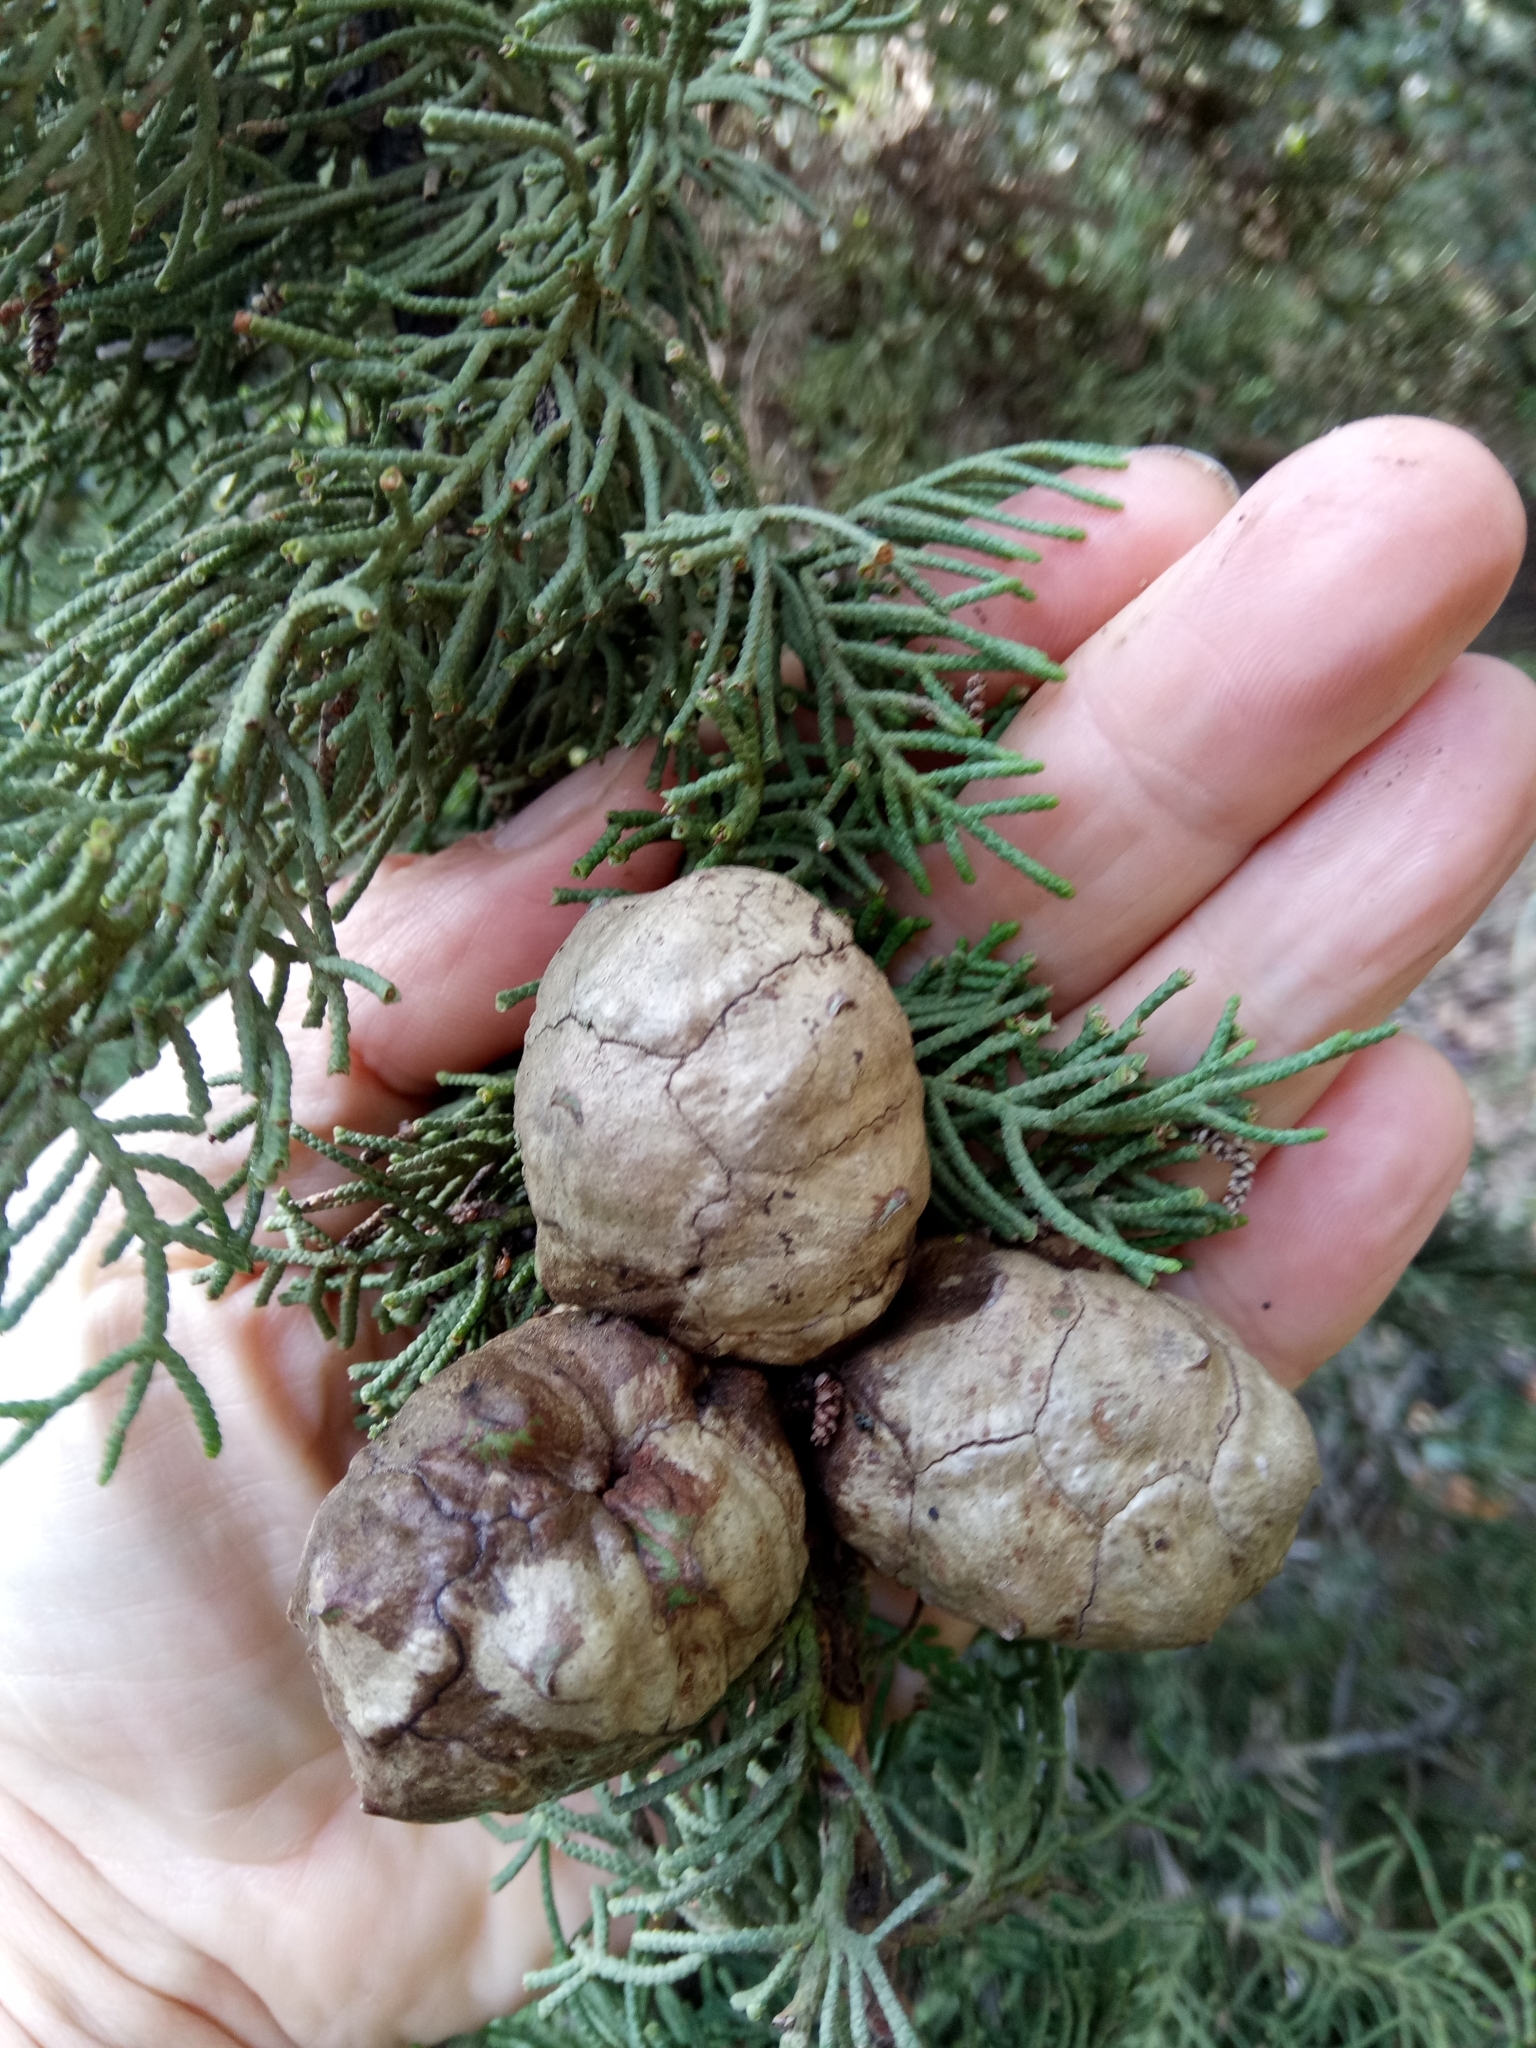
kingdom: Plantae
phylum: Tracheophyta
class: Pinopsida
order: Pinales
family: Cupressaceae
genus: Cupressus
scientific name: Cupressus sempervirens
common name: Italian cypress
